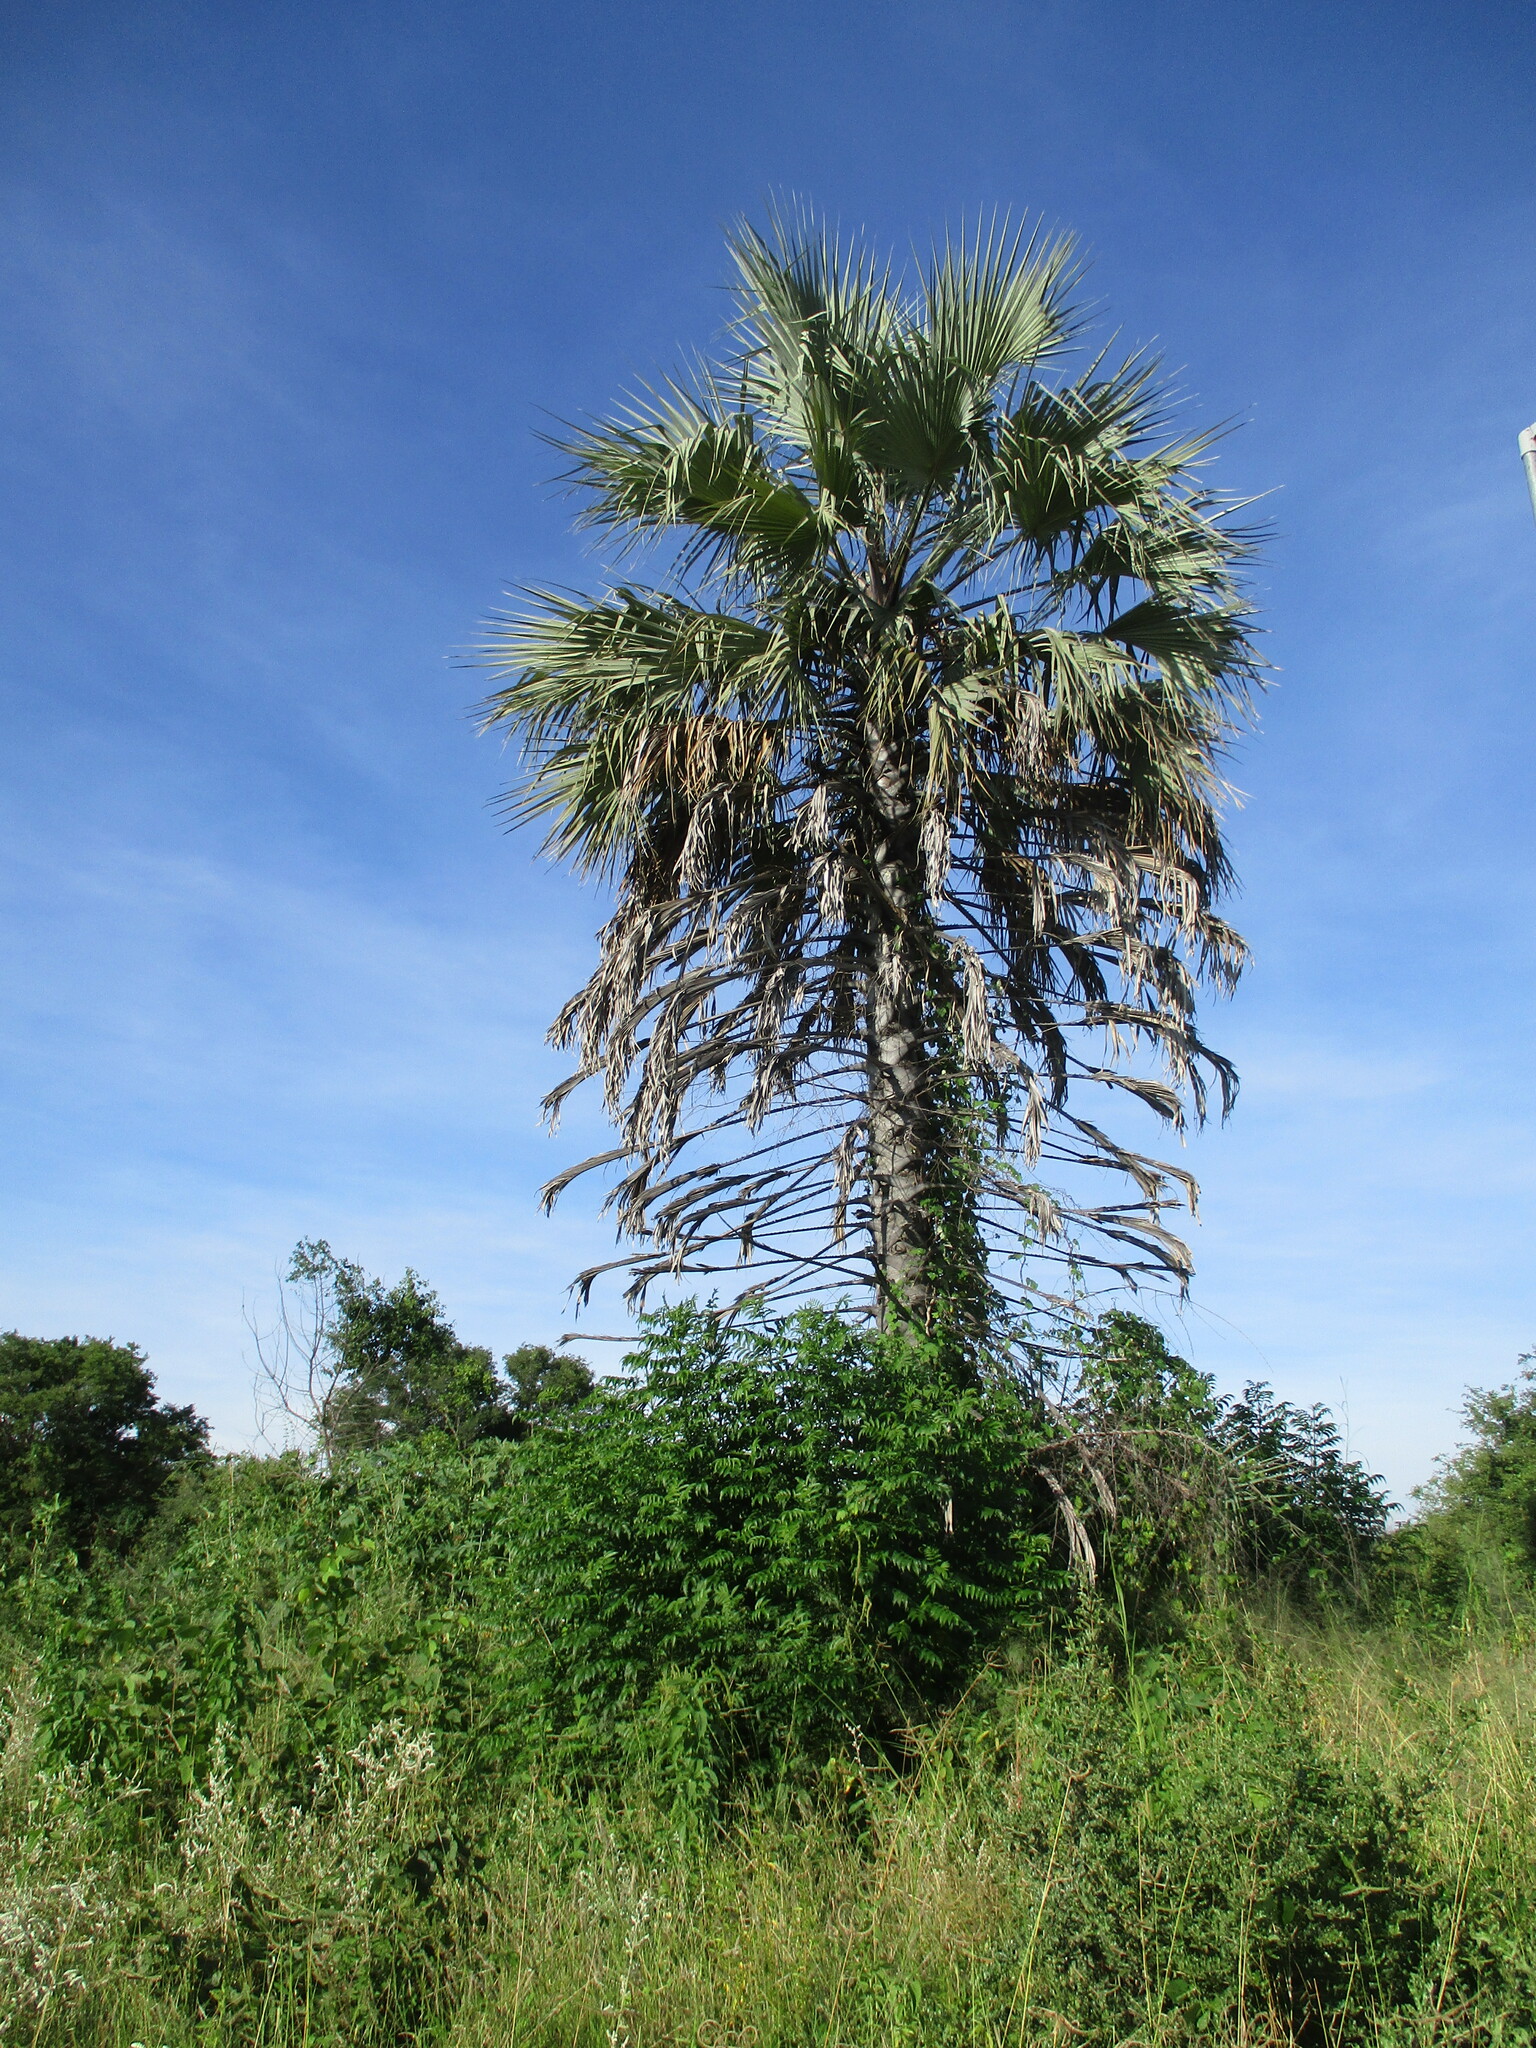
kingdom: Plantae
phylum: Tracheophyta
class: Liliopsida
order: Arecales
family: Arecaceae
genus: Hyphaene
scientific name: Hyphaene petersiana
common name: African ivory nut palm
